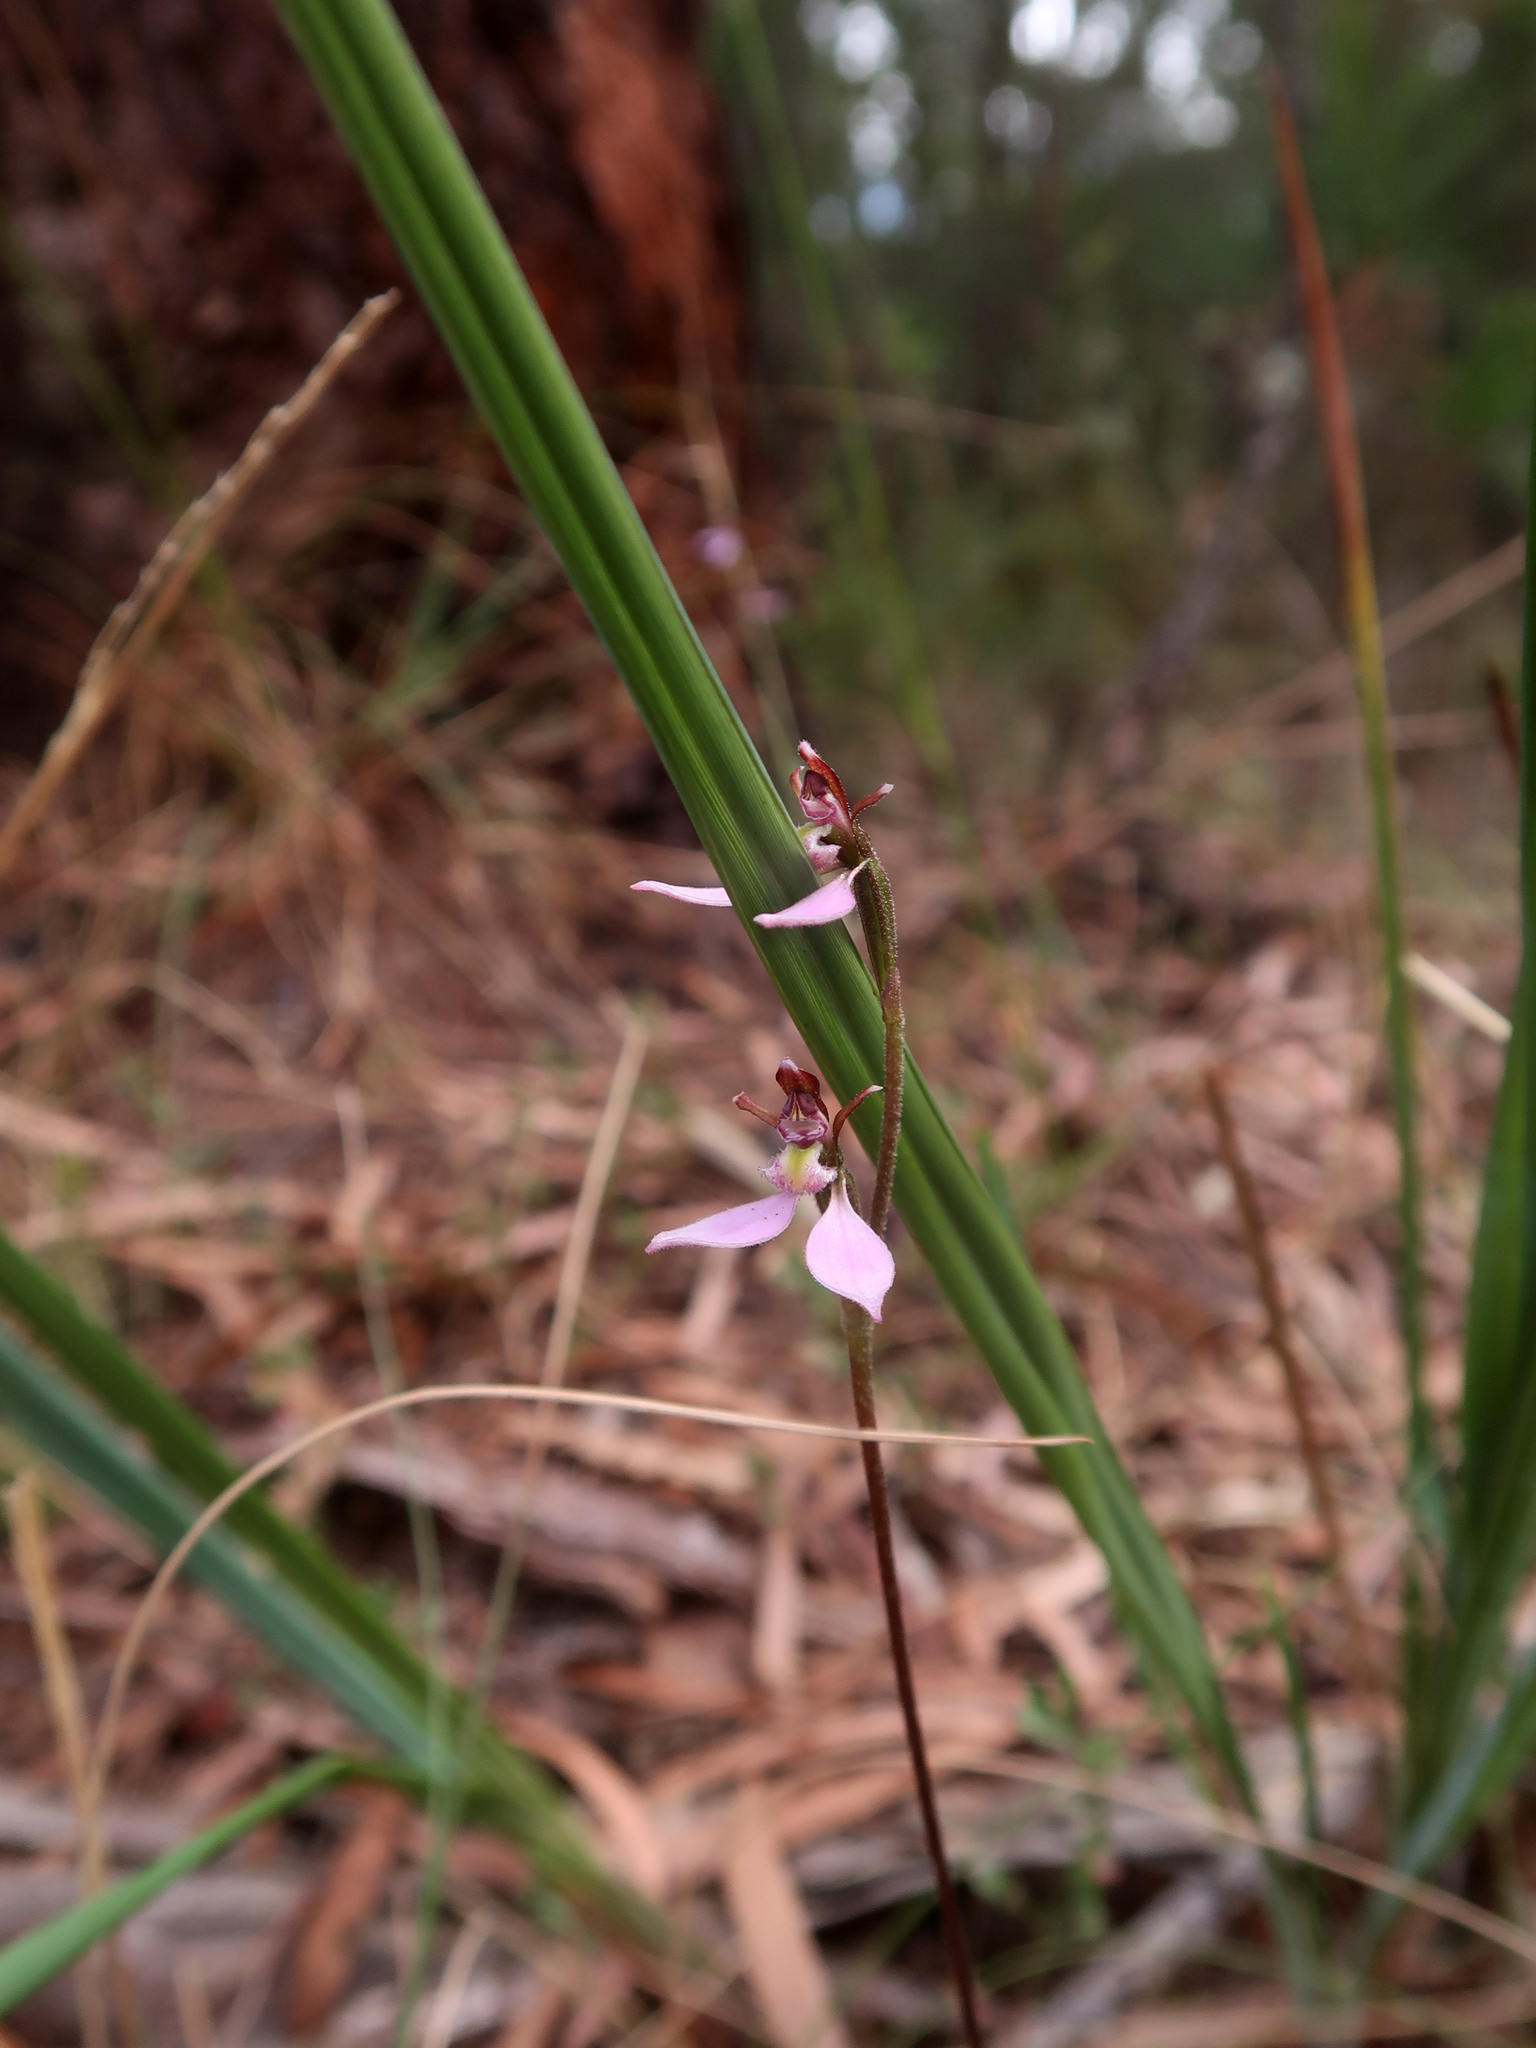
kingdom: Plantae
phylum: Tracheophyta
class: Liliopsida
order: Asparagales
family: Orchidaceae
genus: Eriochilus
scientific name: Eriochilus cucullatus
